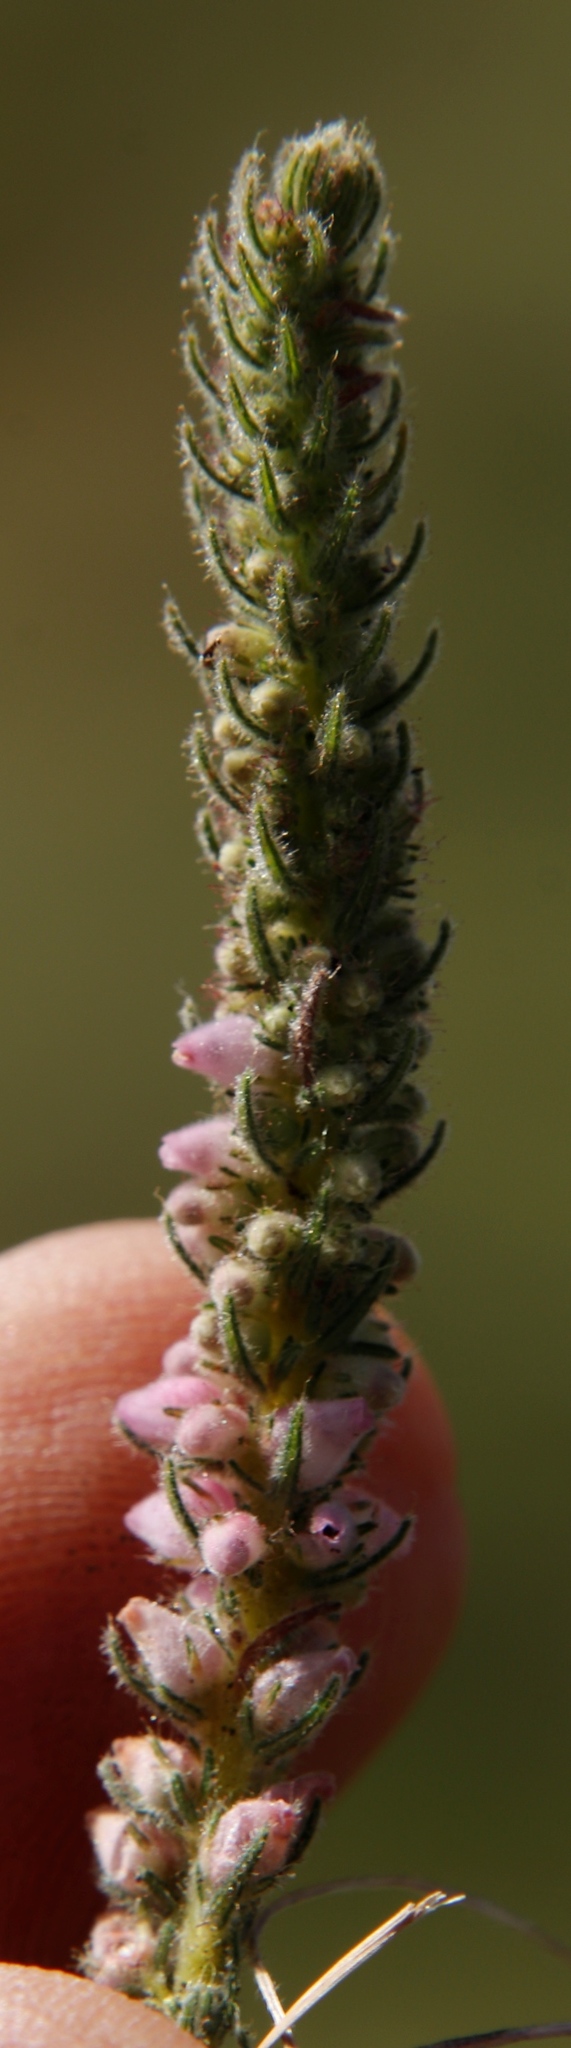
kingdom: Plantae
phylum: Tracheophyta
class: Magnoliopsida
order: Ericales
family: Ericaceae
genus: Erica
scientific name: Erica alopecurus
